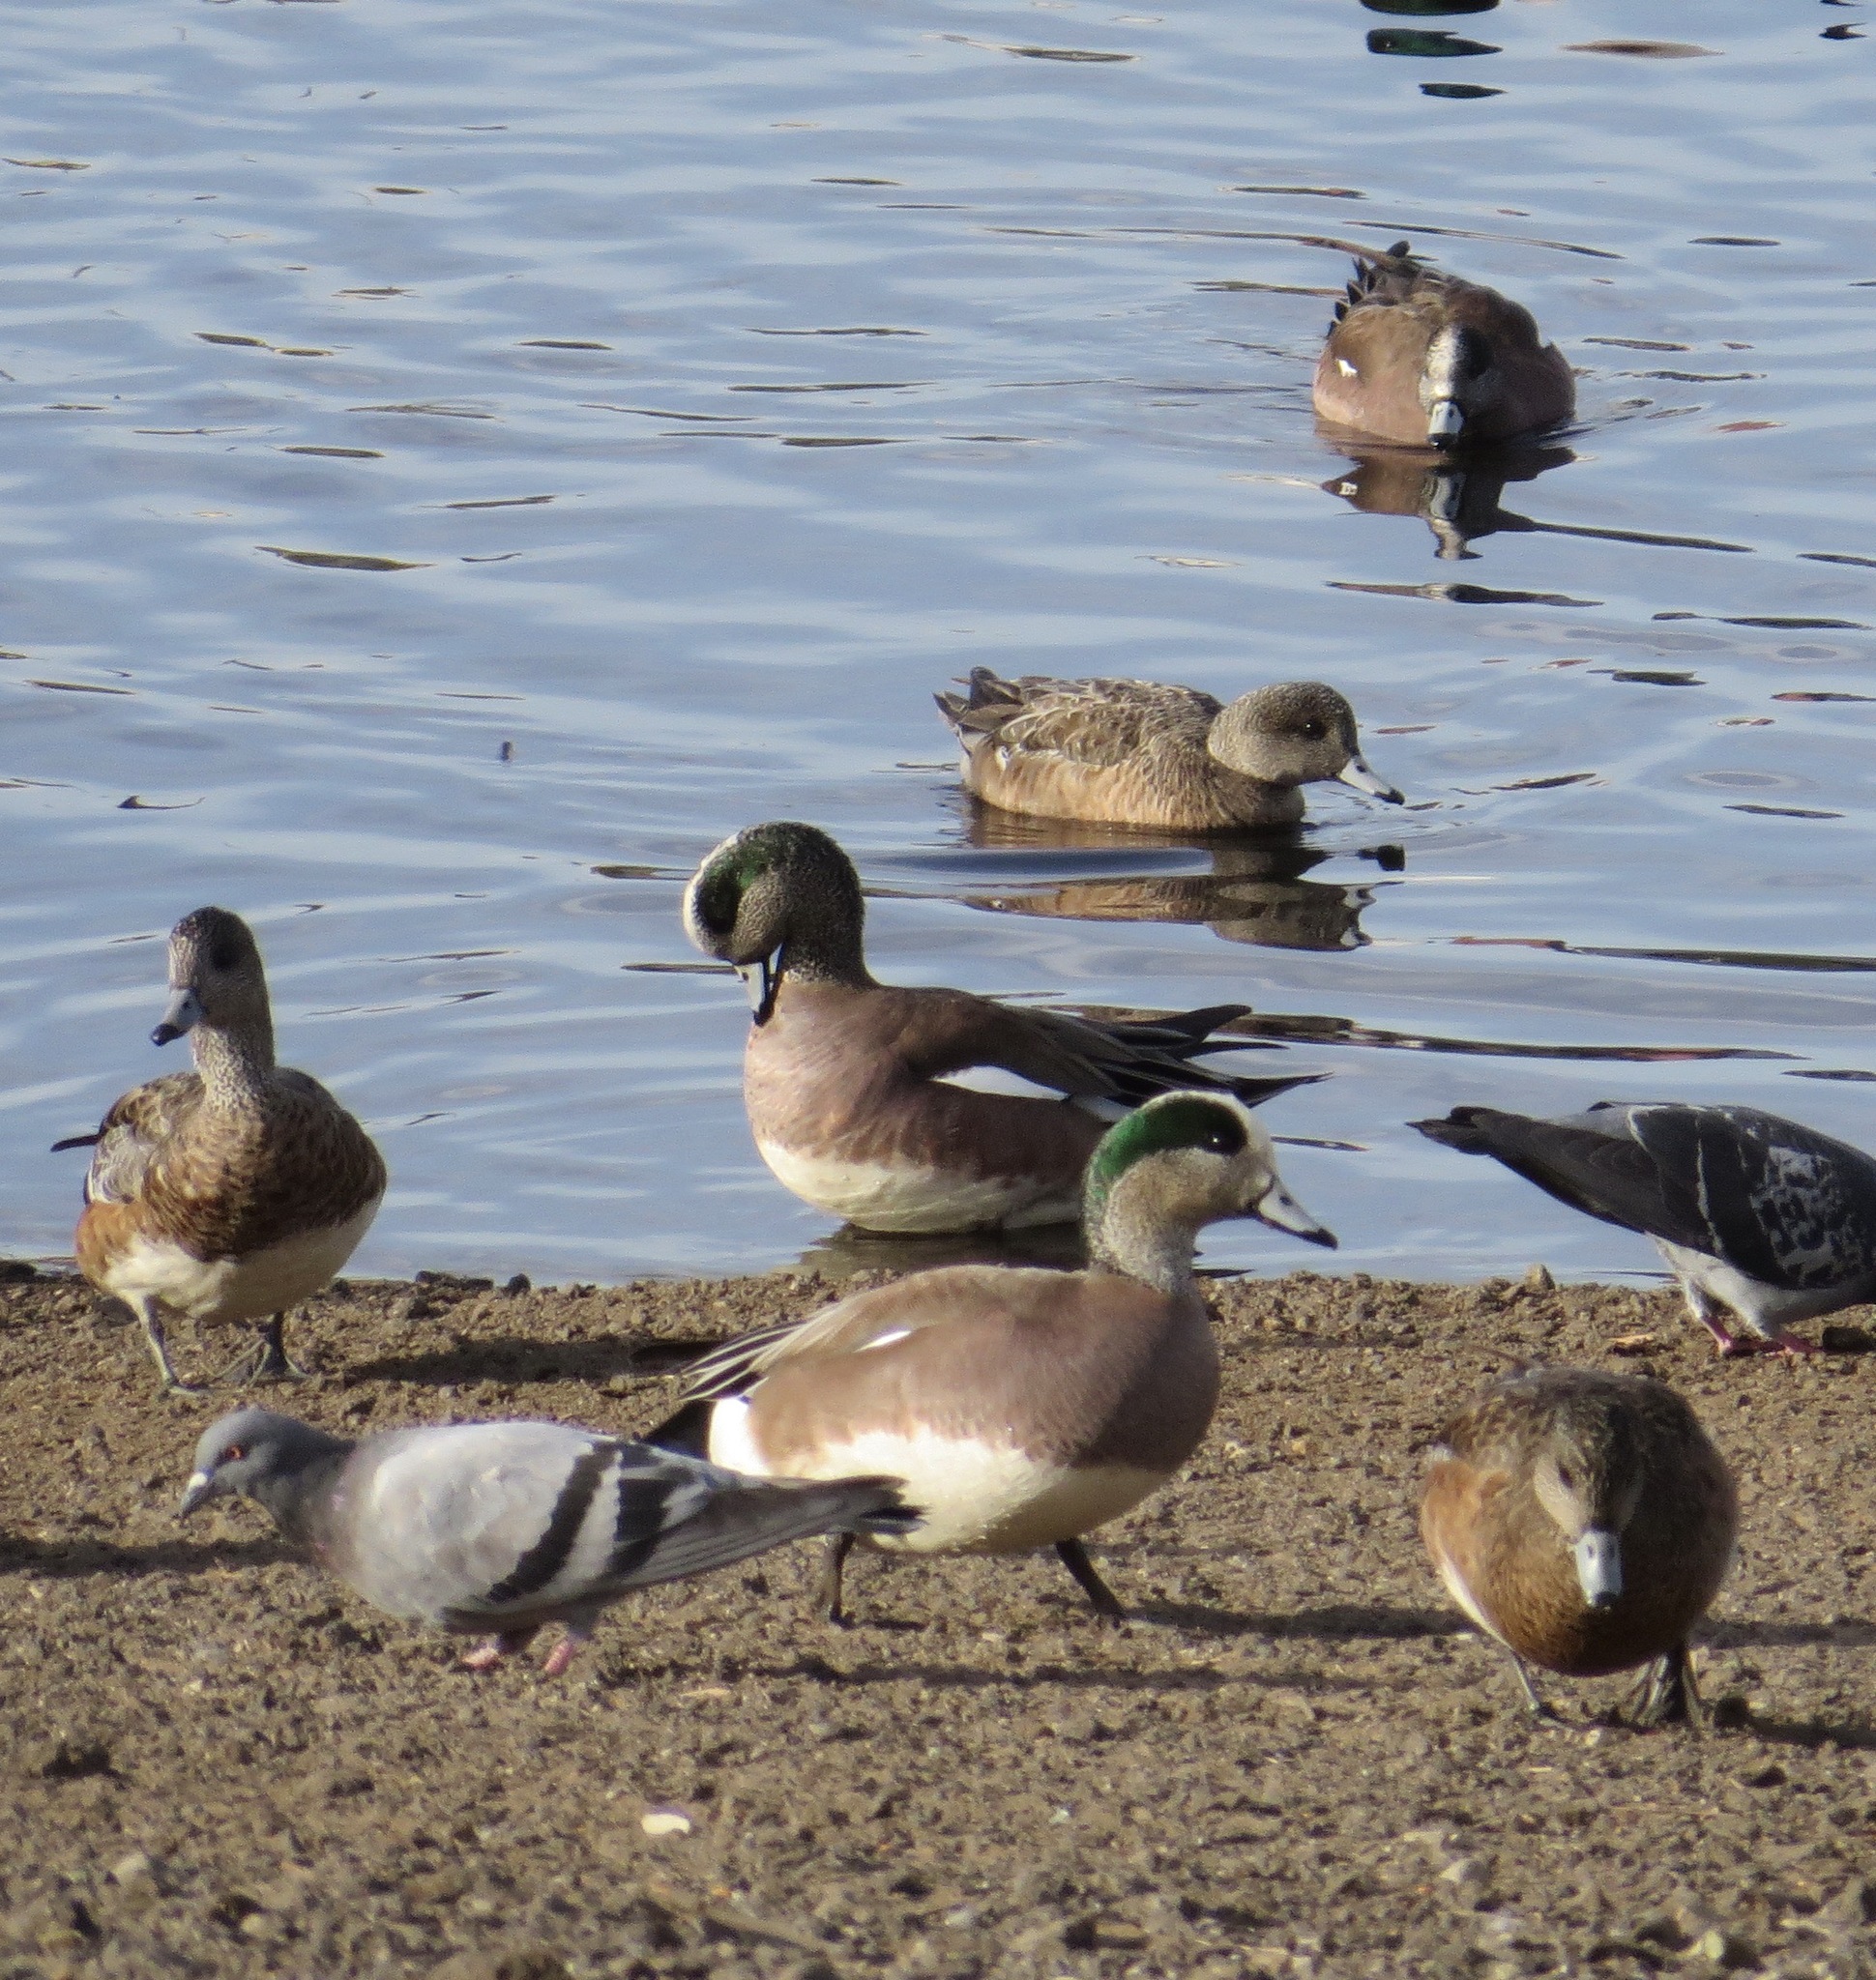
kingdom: Animalia
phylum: Chordata
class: Aves
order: Anseriformes
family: Anatidae
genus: Mareca
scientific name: Mareca americana
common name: American wigeon
